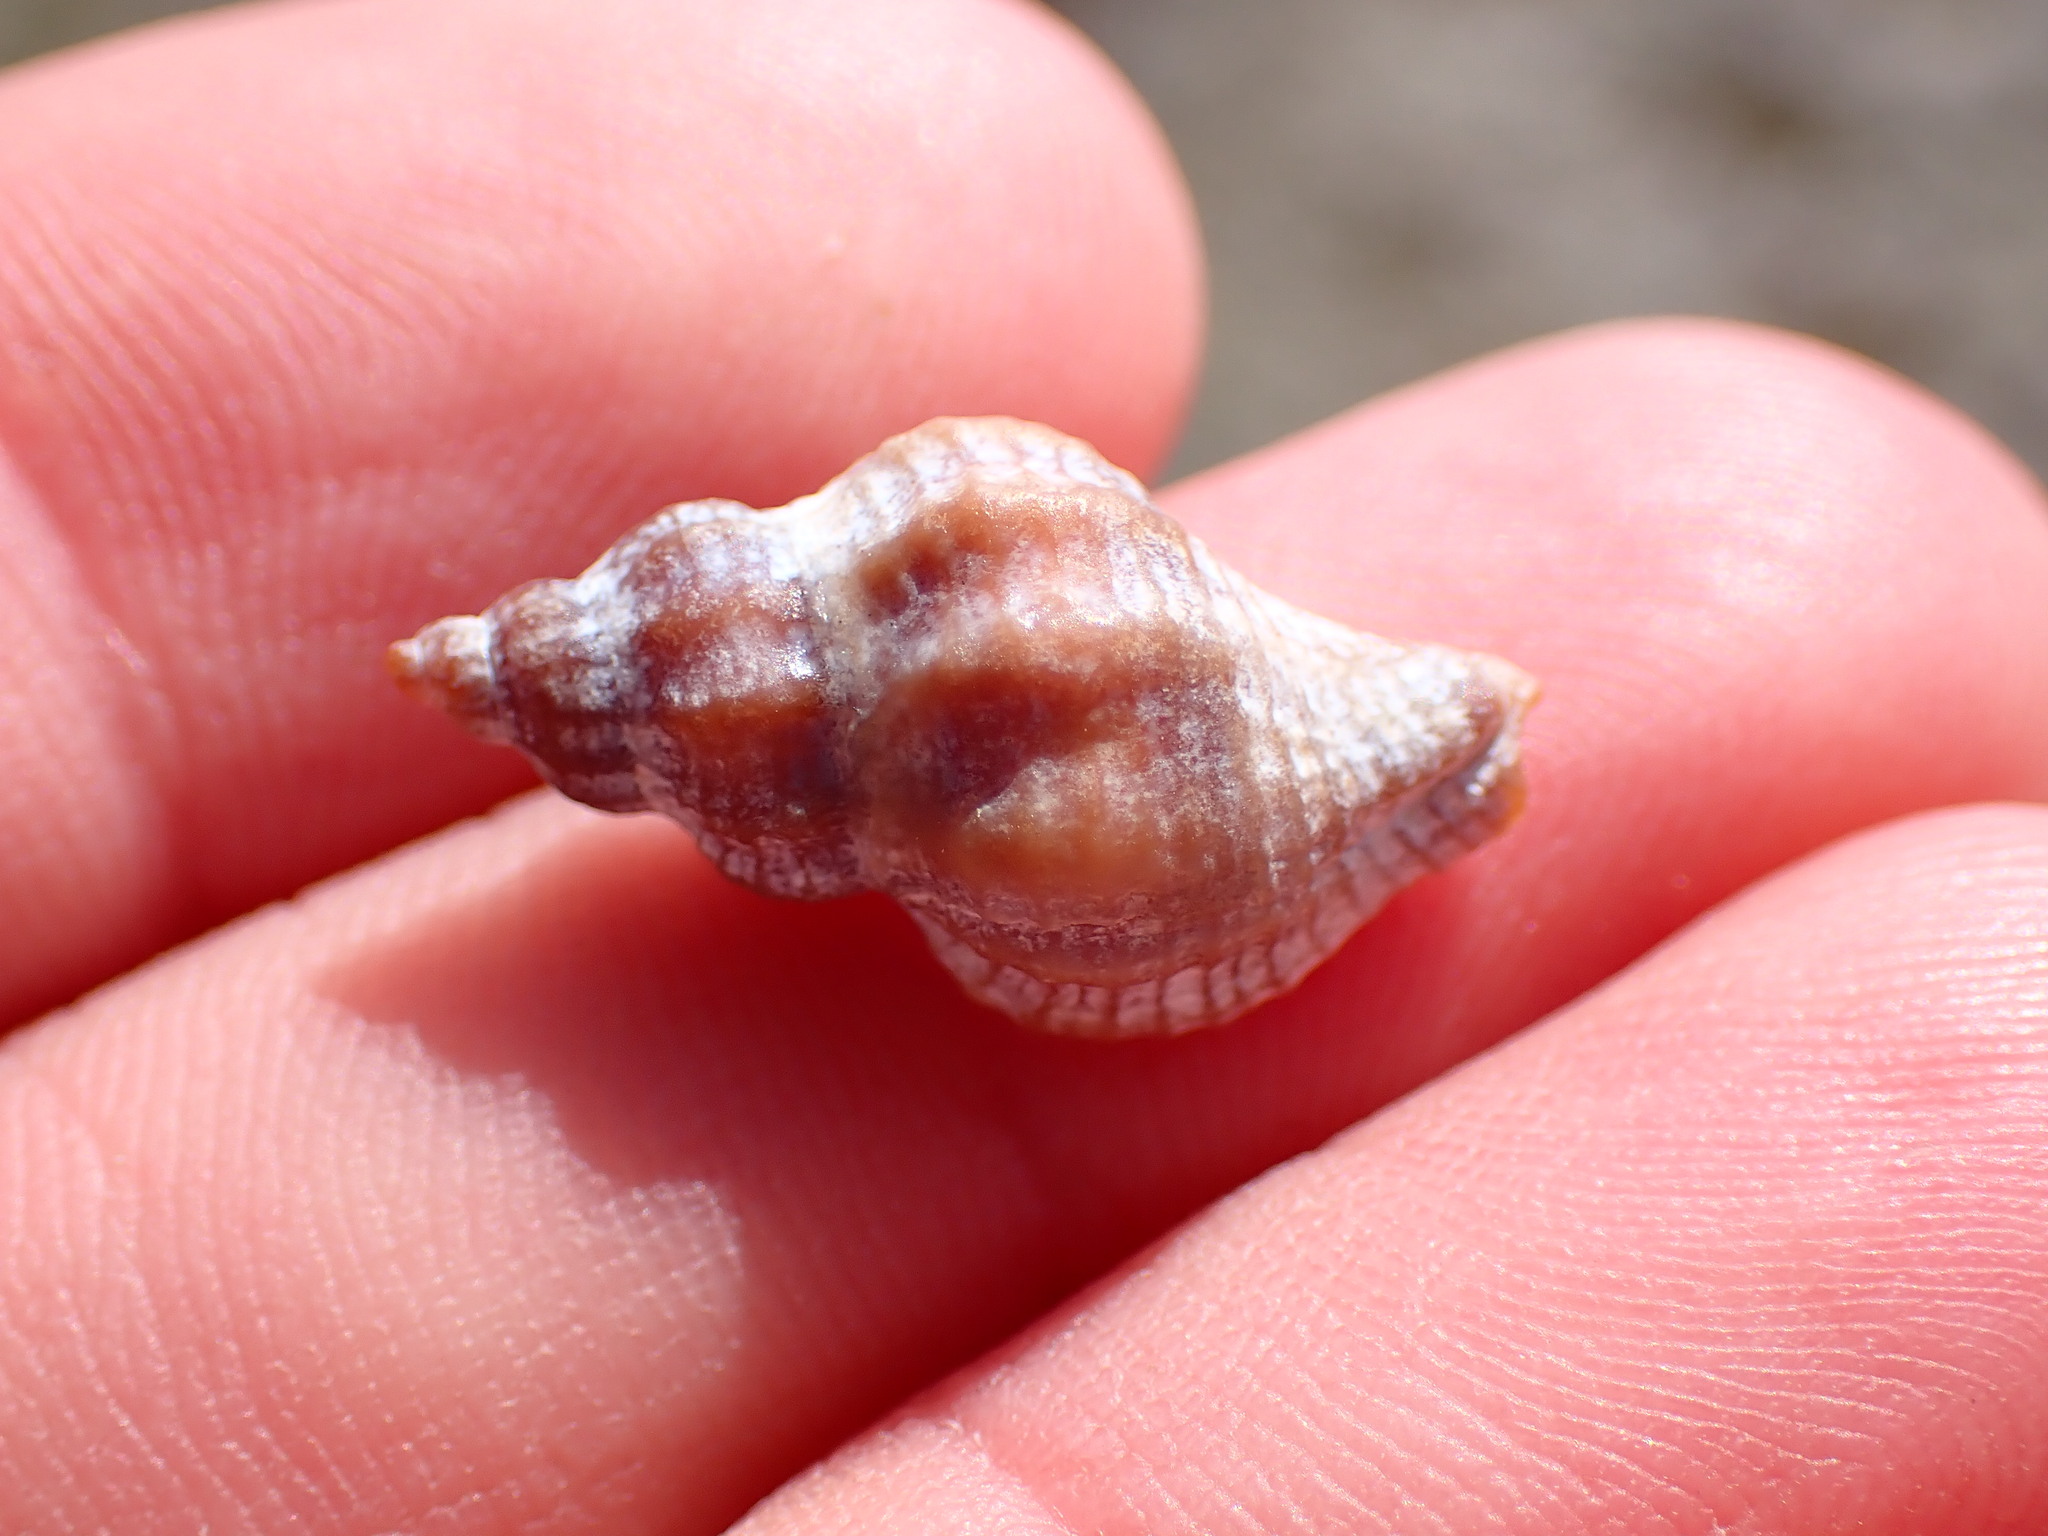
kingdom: Animalia
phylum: Mollusca
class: Gastropoda
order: Neogastropoda
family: Muricidae
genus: Urosalpinx
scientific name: Urosalpinx cinerea
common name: American sting winkle
